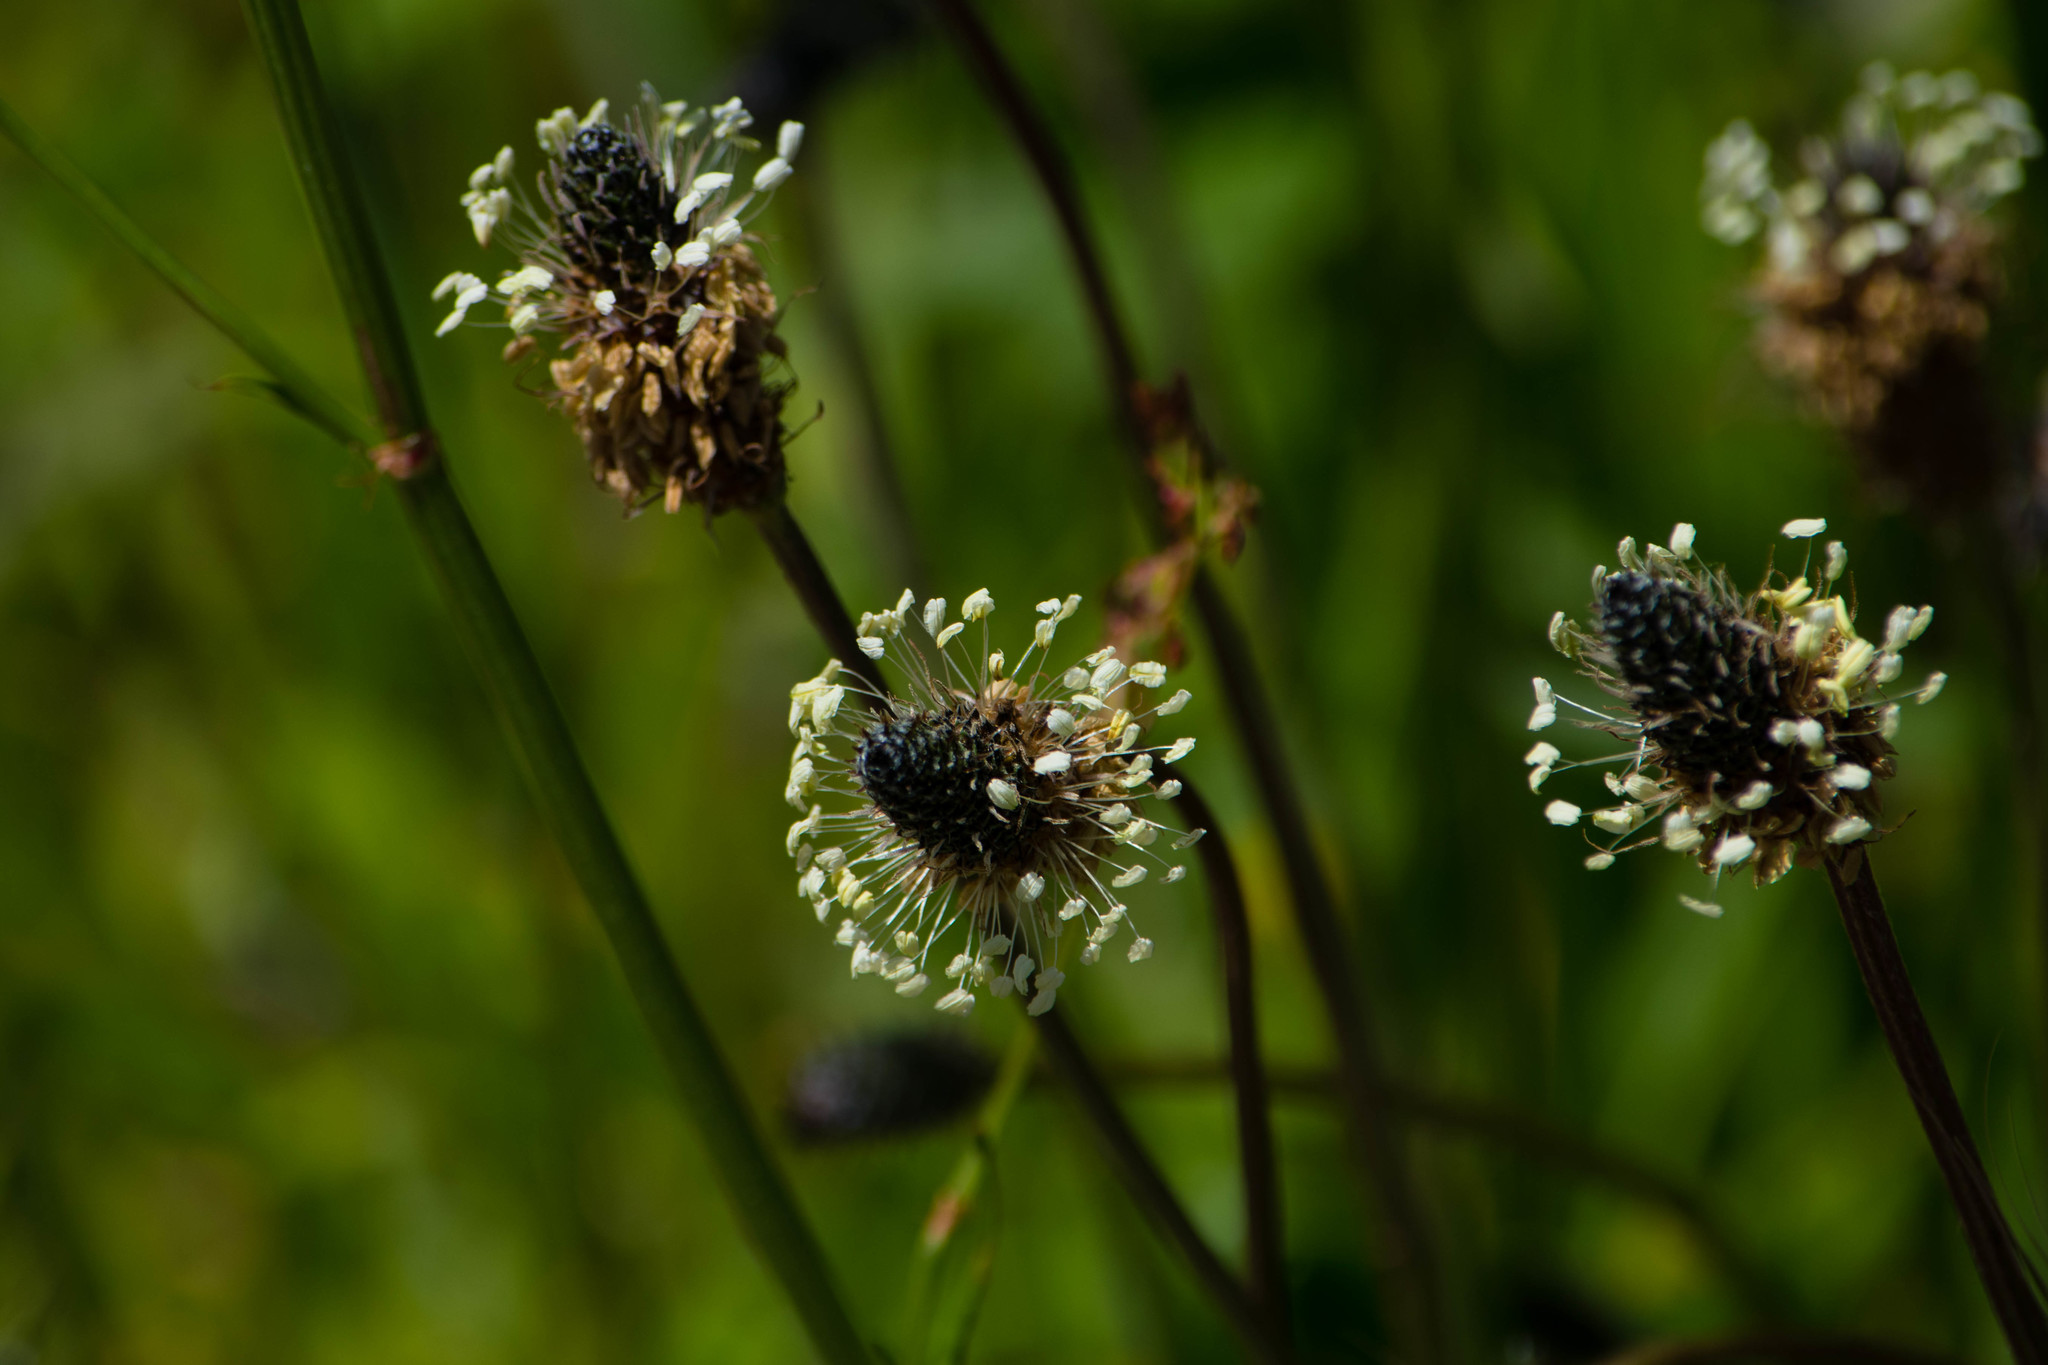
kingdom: Plantae
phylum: Tracheophyta
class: Magnoliopsida
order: Lamiales
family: Plantaginaceae
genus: Plantago
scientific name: Plantago lanceolata
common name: Ribwort plantain
